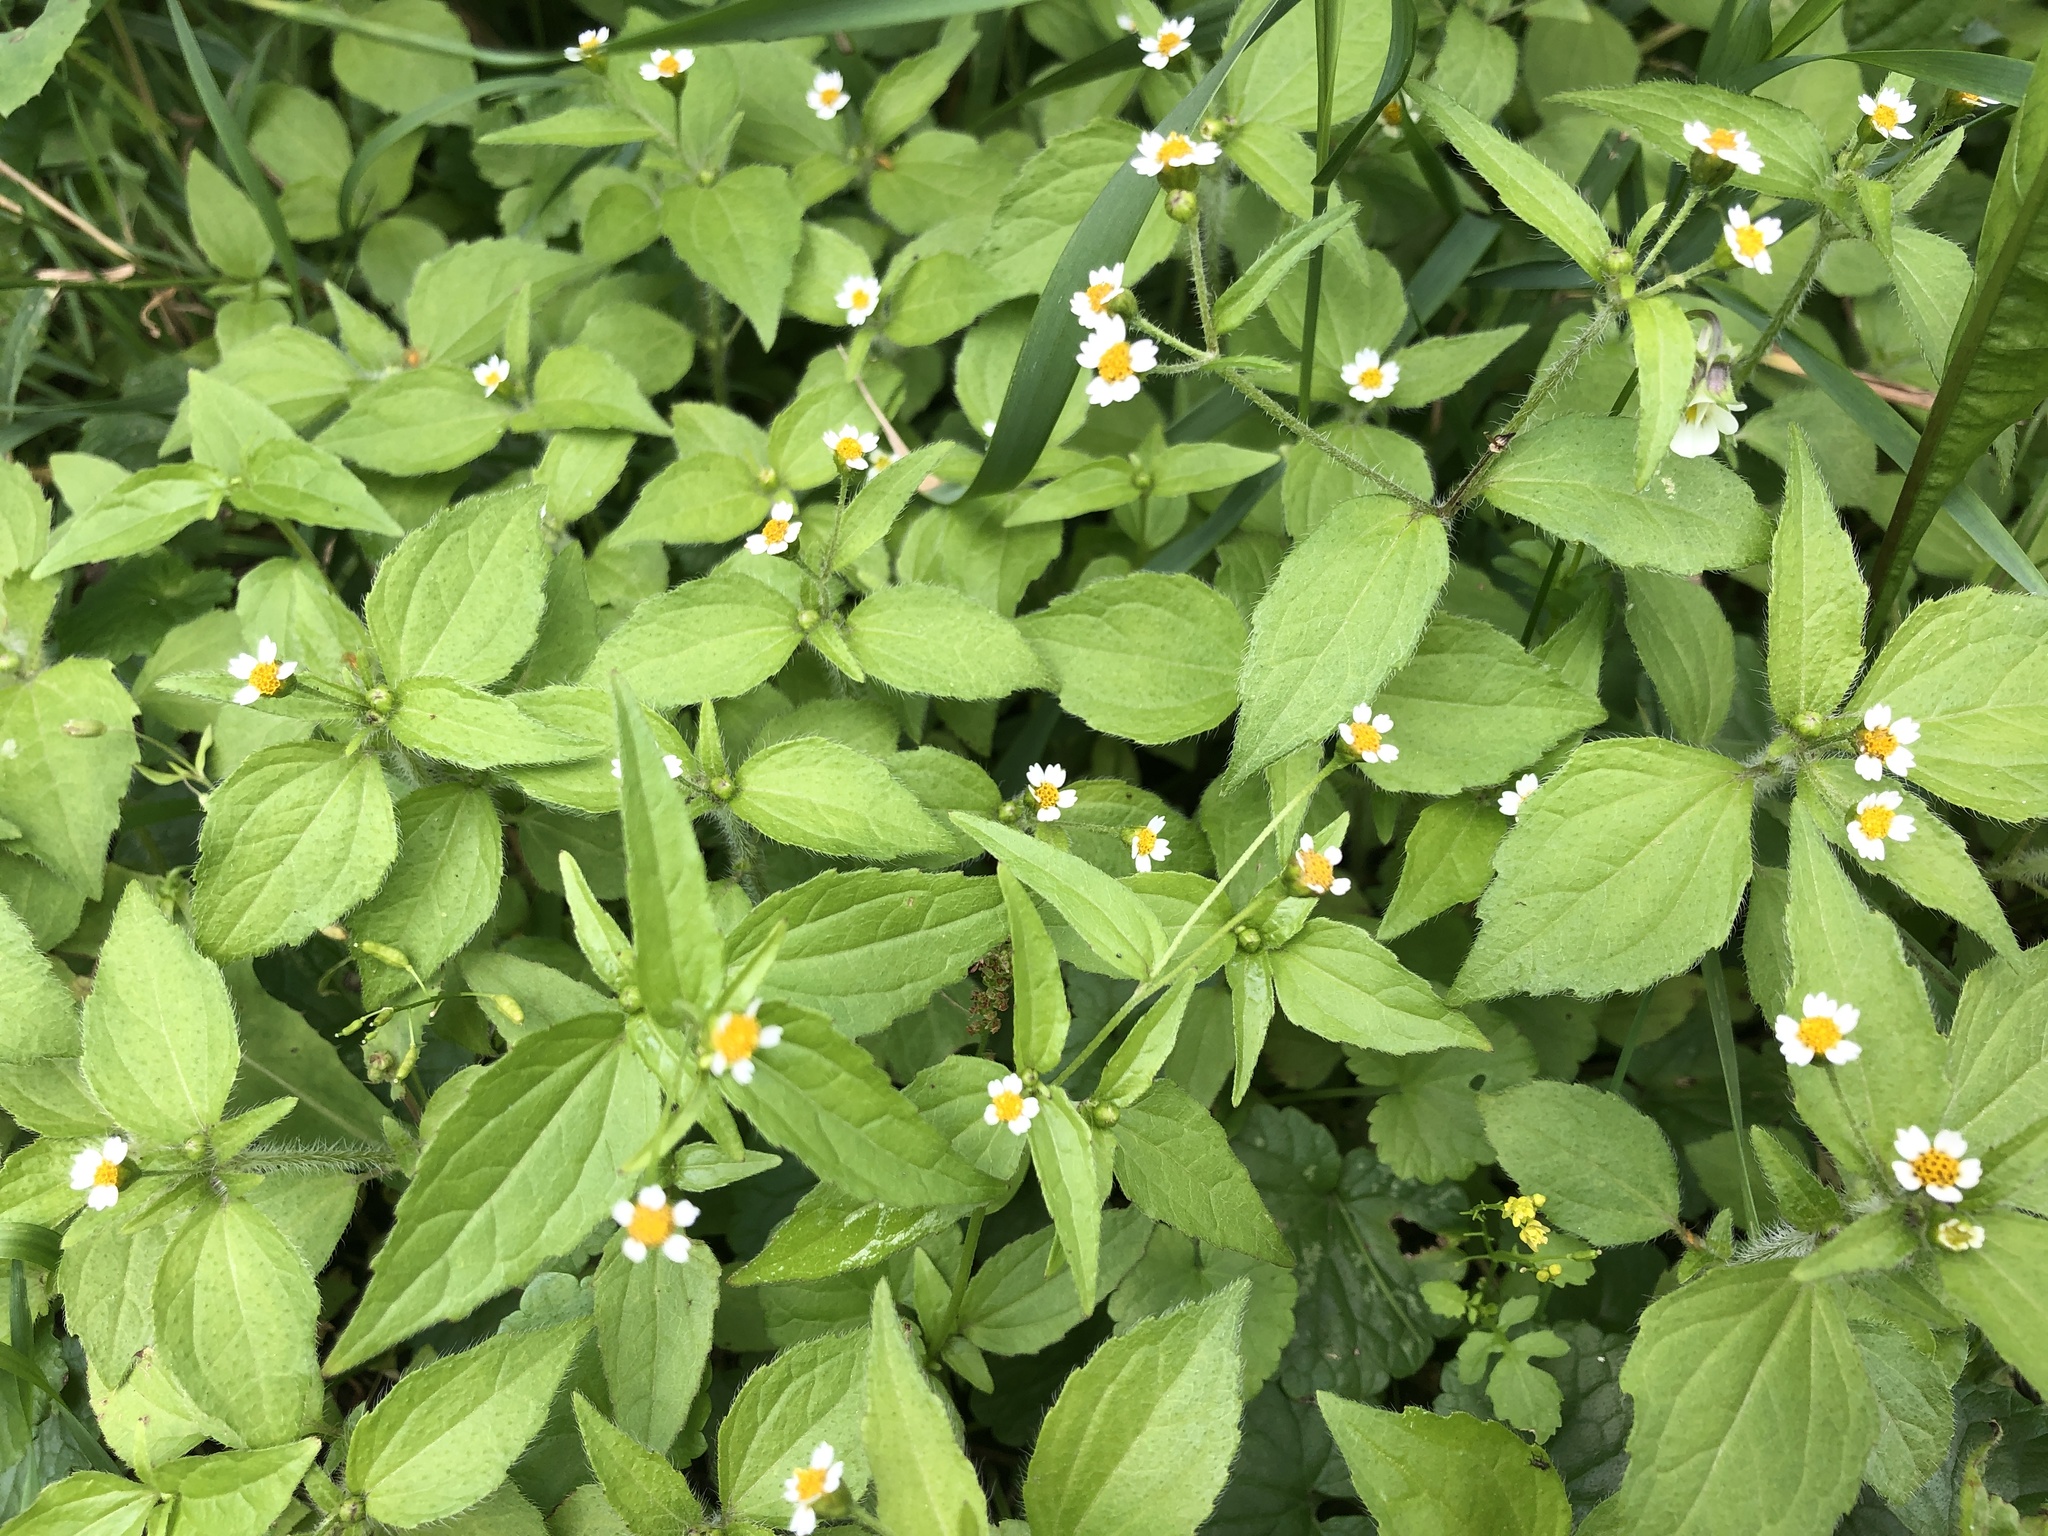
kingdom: Plantae
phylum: Tracheophyta
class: Magnoliopsida
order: Asterales
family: Asteraceae
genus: Galinsoga
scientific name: Galinsoga quadriradiata
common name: Shaggy soldier
